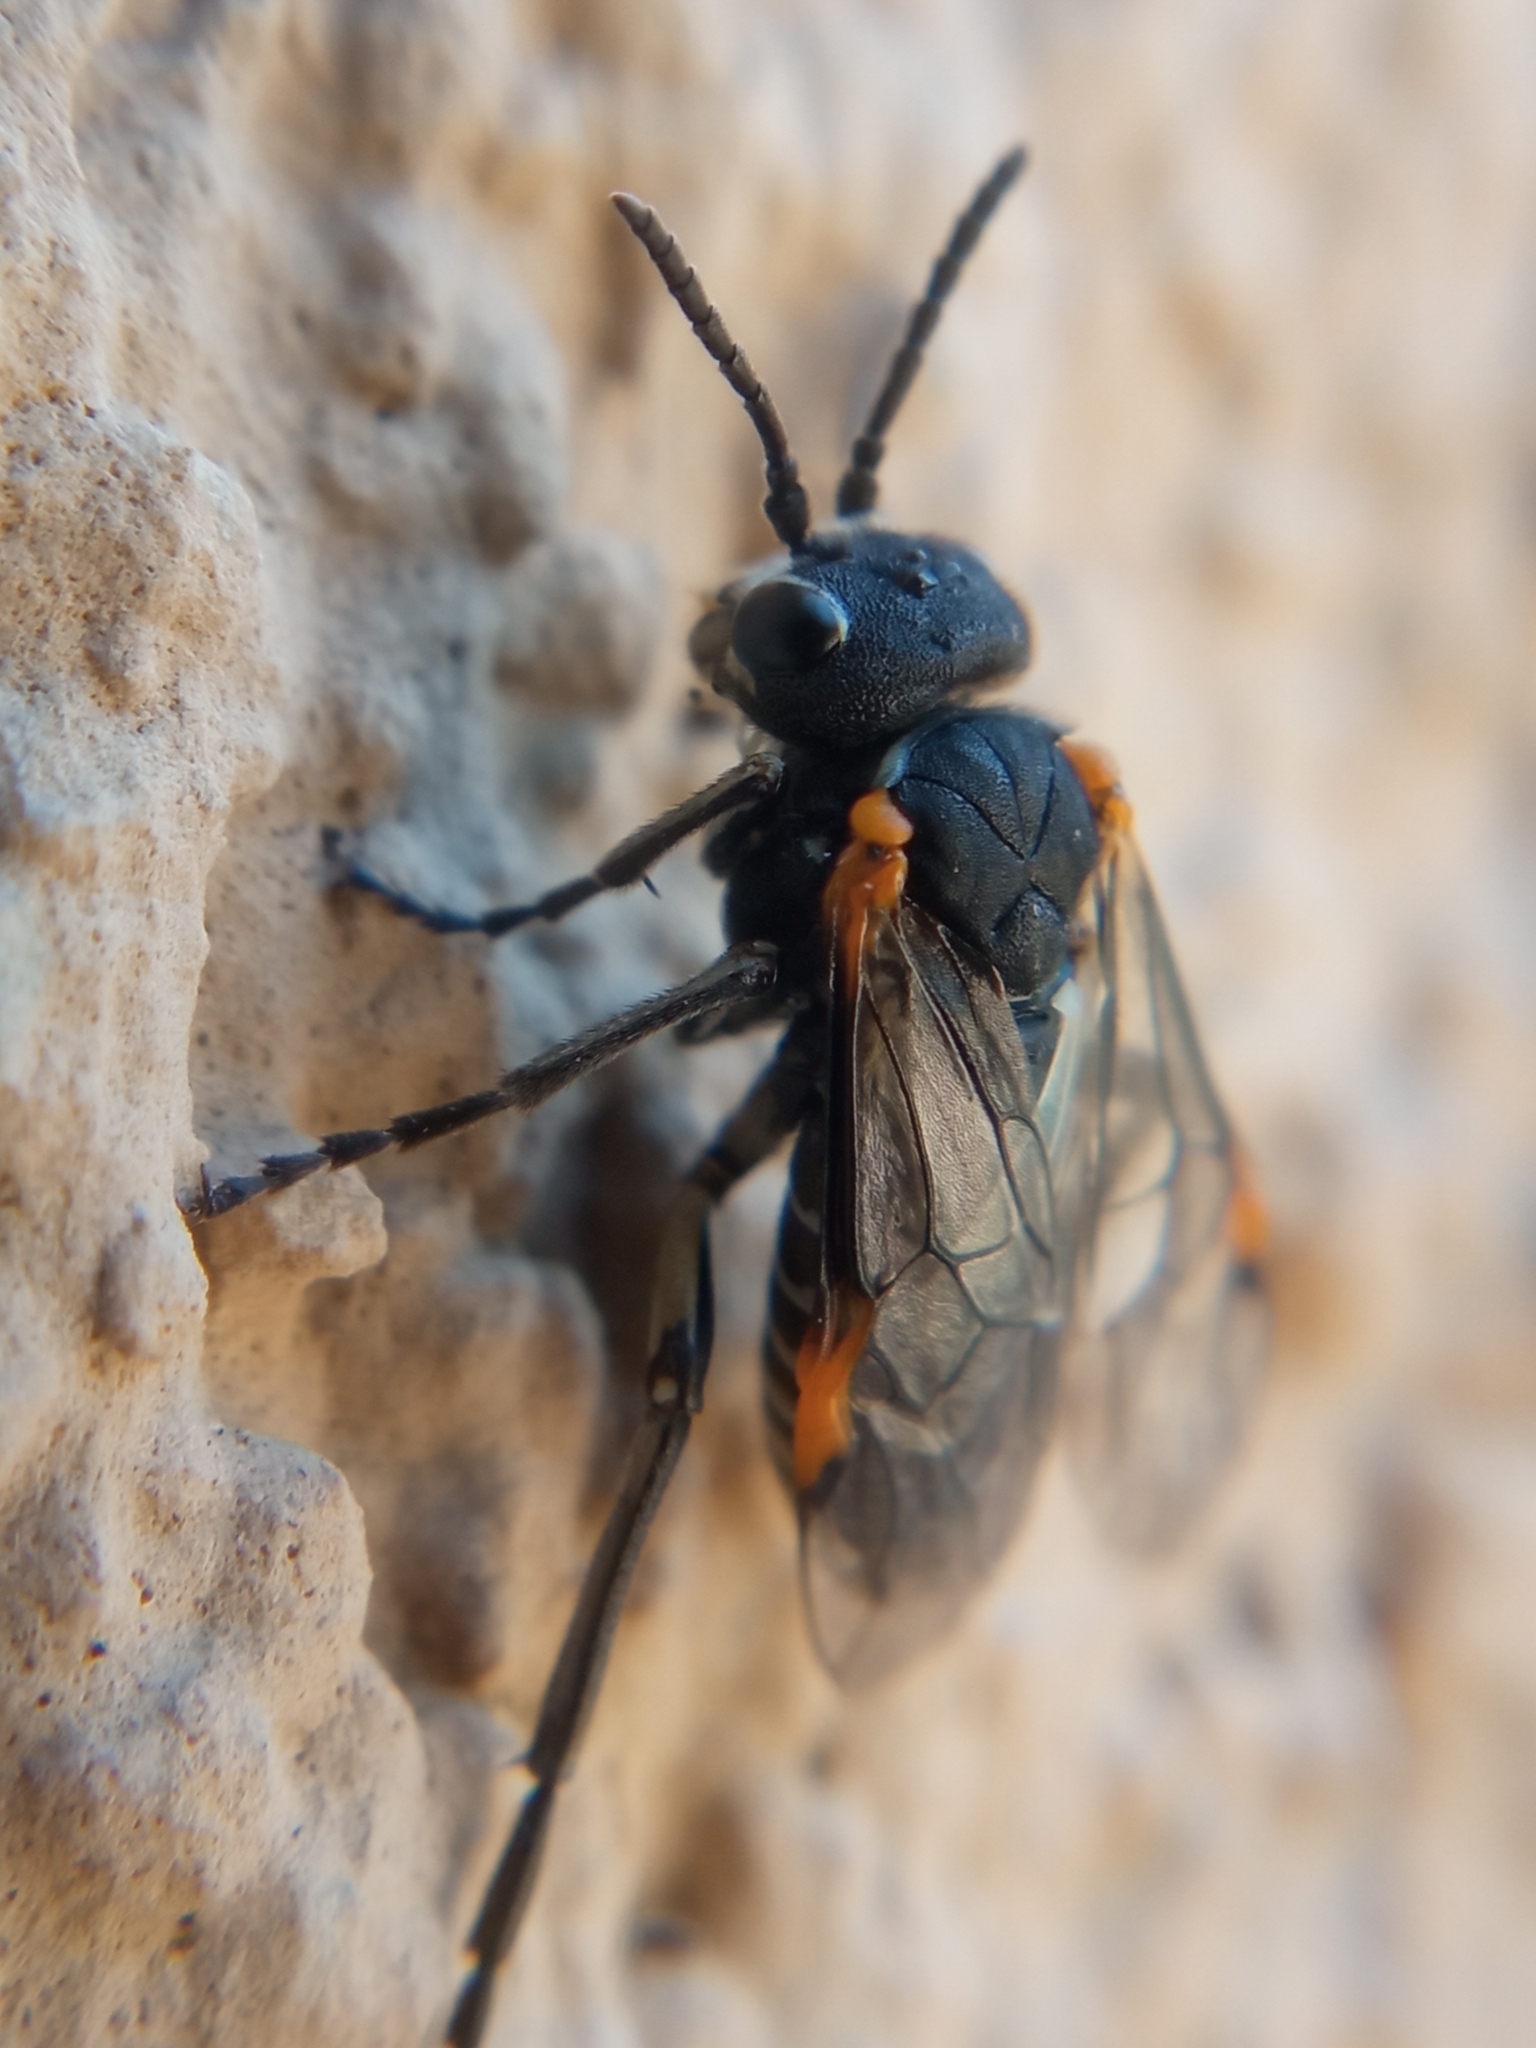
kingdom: Animalia
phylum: Arthropoda
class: Insecta
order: Hymenoptera
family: Tenthredinidae
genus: Sciapteryx
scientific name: Sciapteryx costalis
